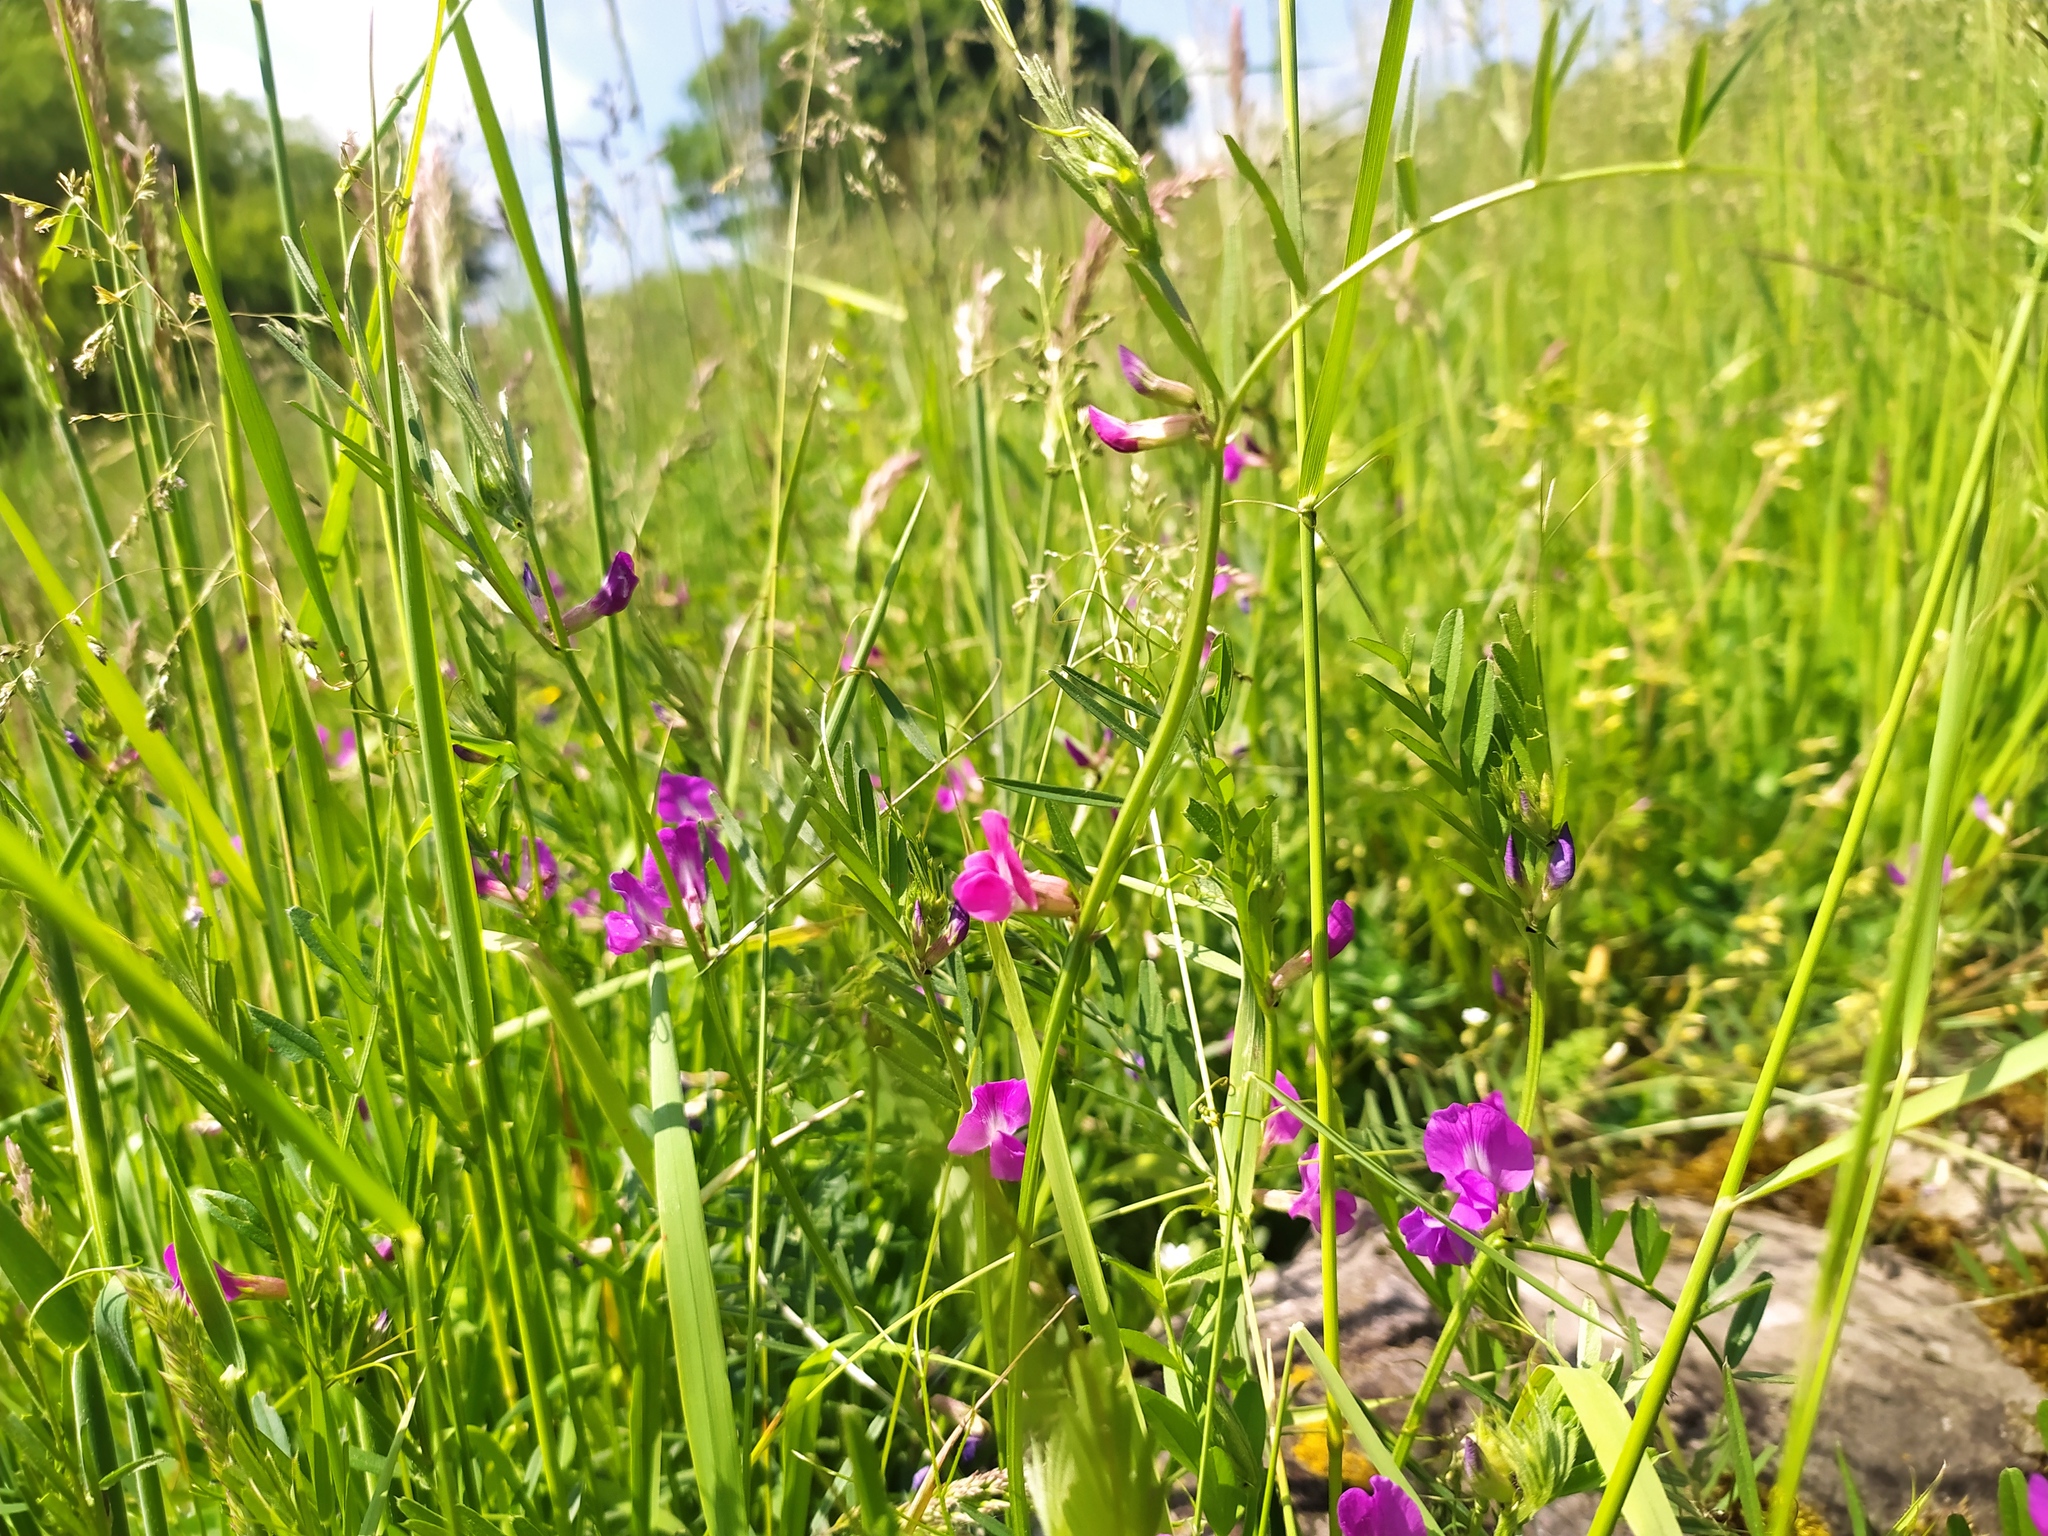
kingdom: Plantae
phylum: Tracheophyta
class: Magnoliopsida
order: Fabales
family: Fabaceae
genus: Vicia
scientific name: Vicia sativa
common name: Garden vetch
